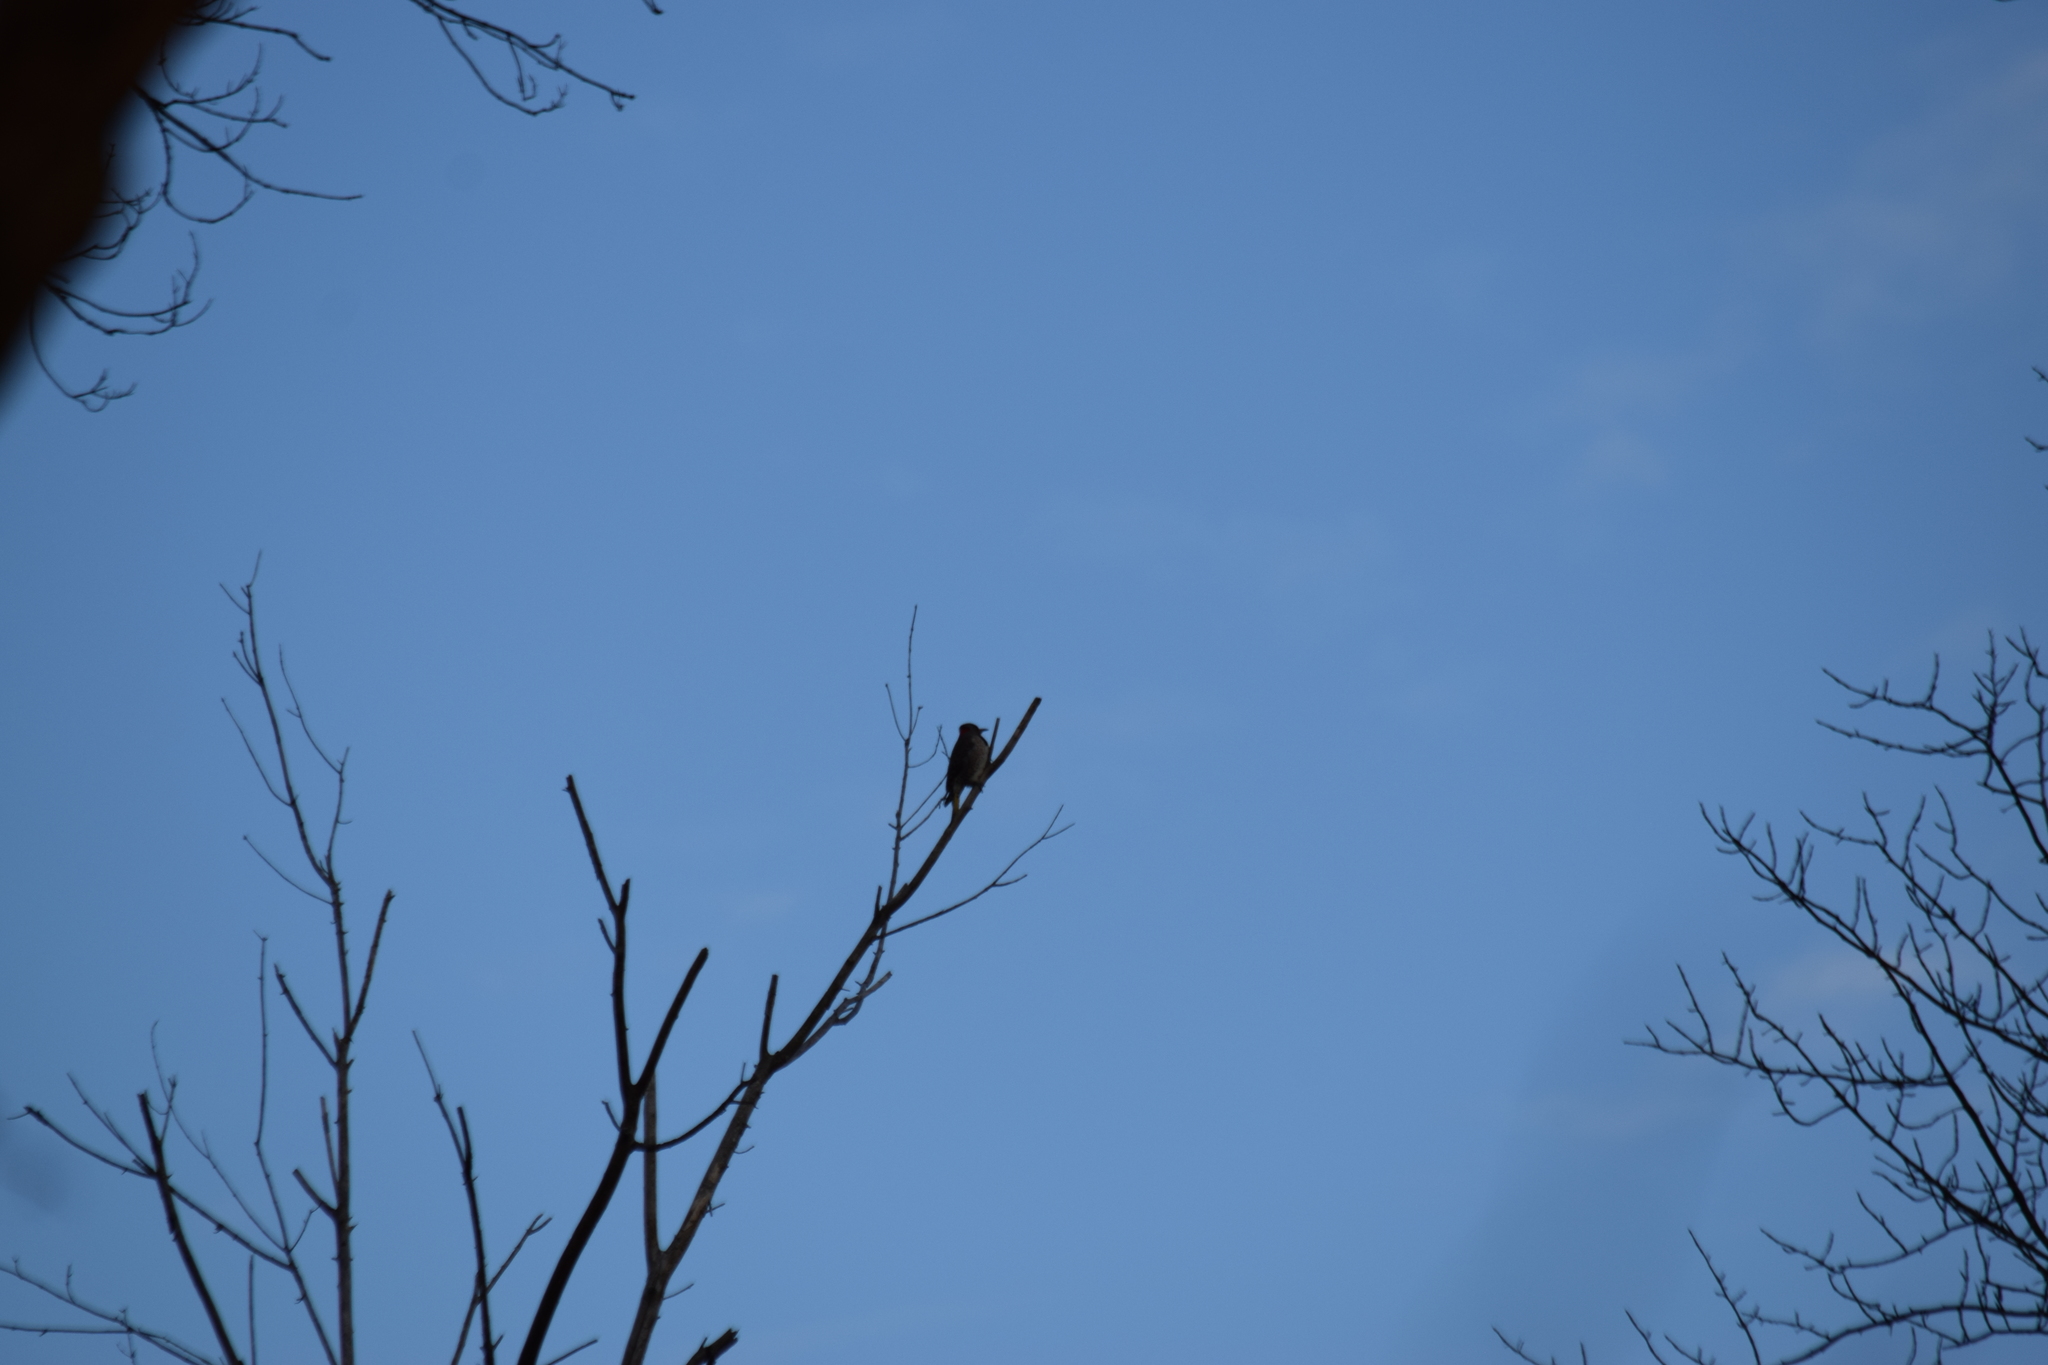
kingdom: Animalia
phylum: Chordata
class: Aves
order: Piciformes
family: Picidae
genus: Colaptes
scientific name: Colaptes auratus
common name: Northern flicker
